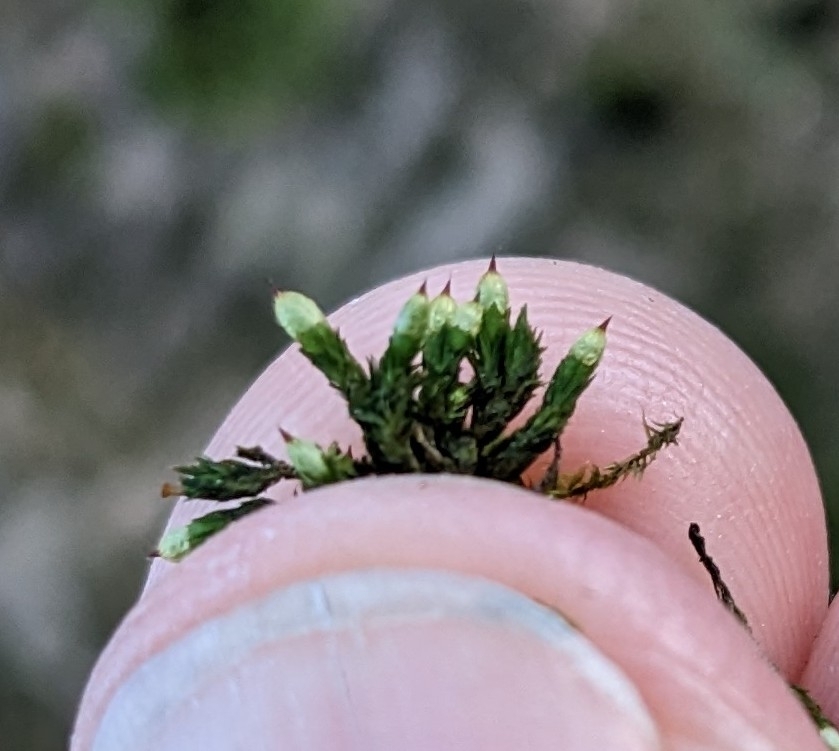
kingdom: Plantae
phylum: Bryophyta
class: Bryopsida
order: Orthotrichales
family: Orthotrichaceae
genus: Orthotrichum
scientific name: Orthotrichum stramineum
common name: Straw bristle-moss
